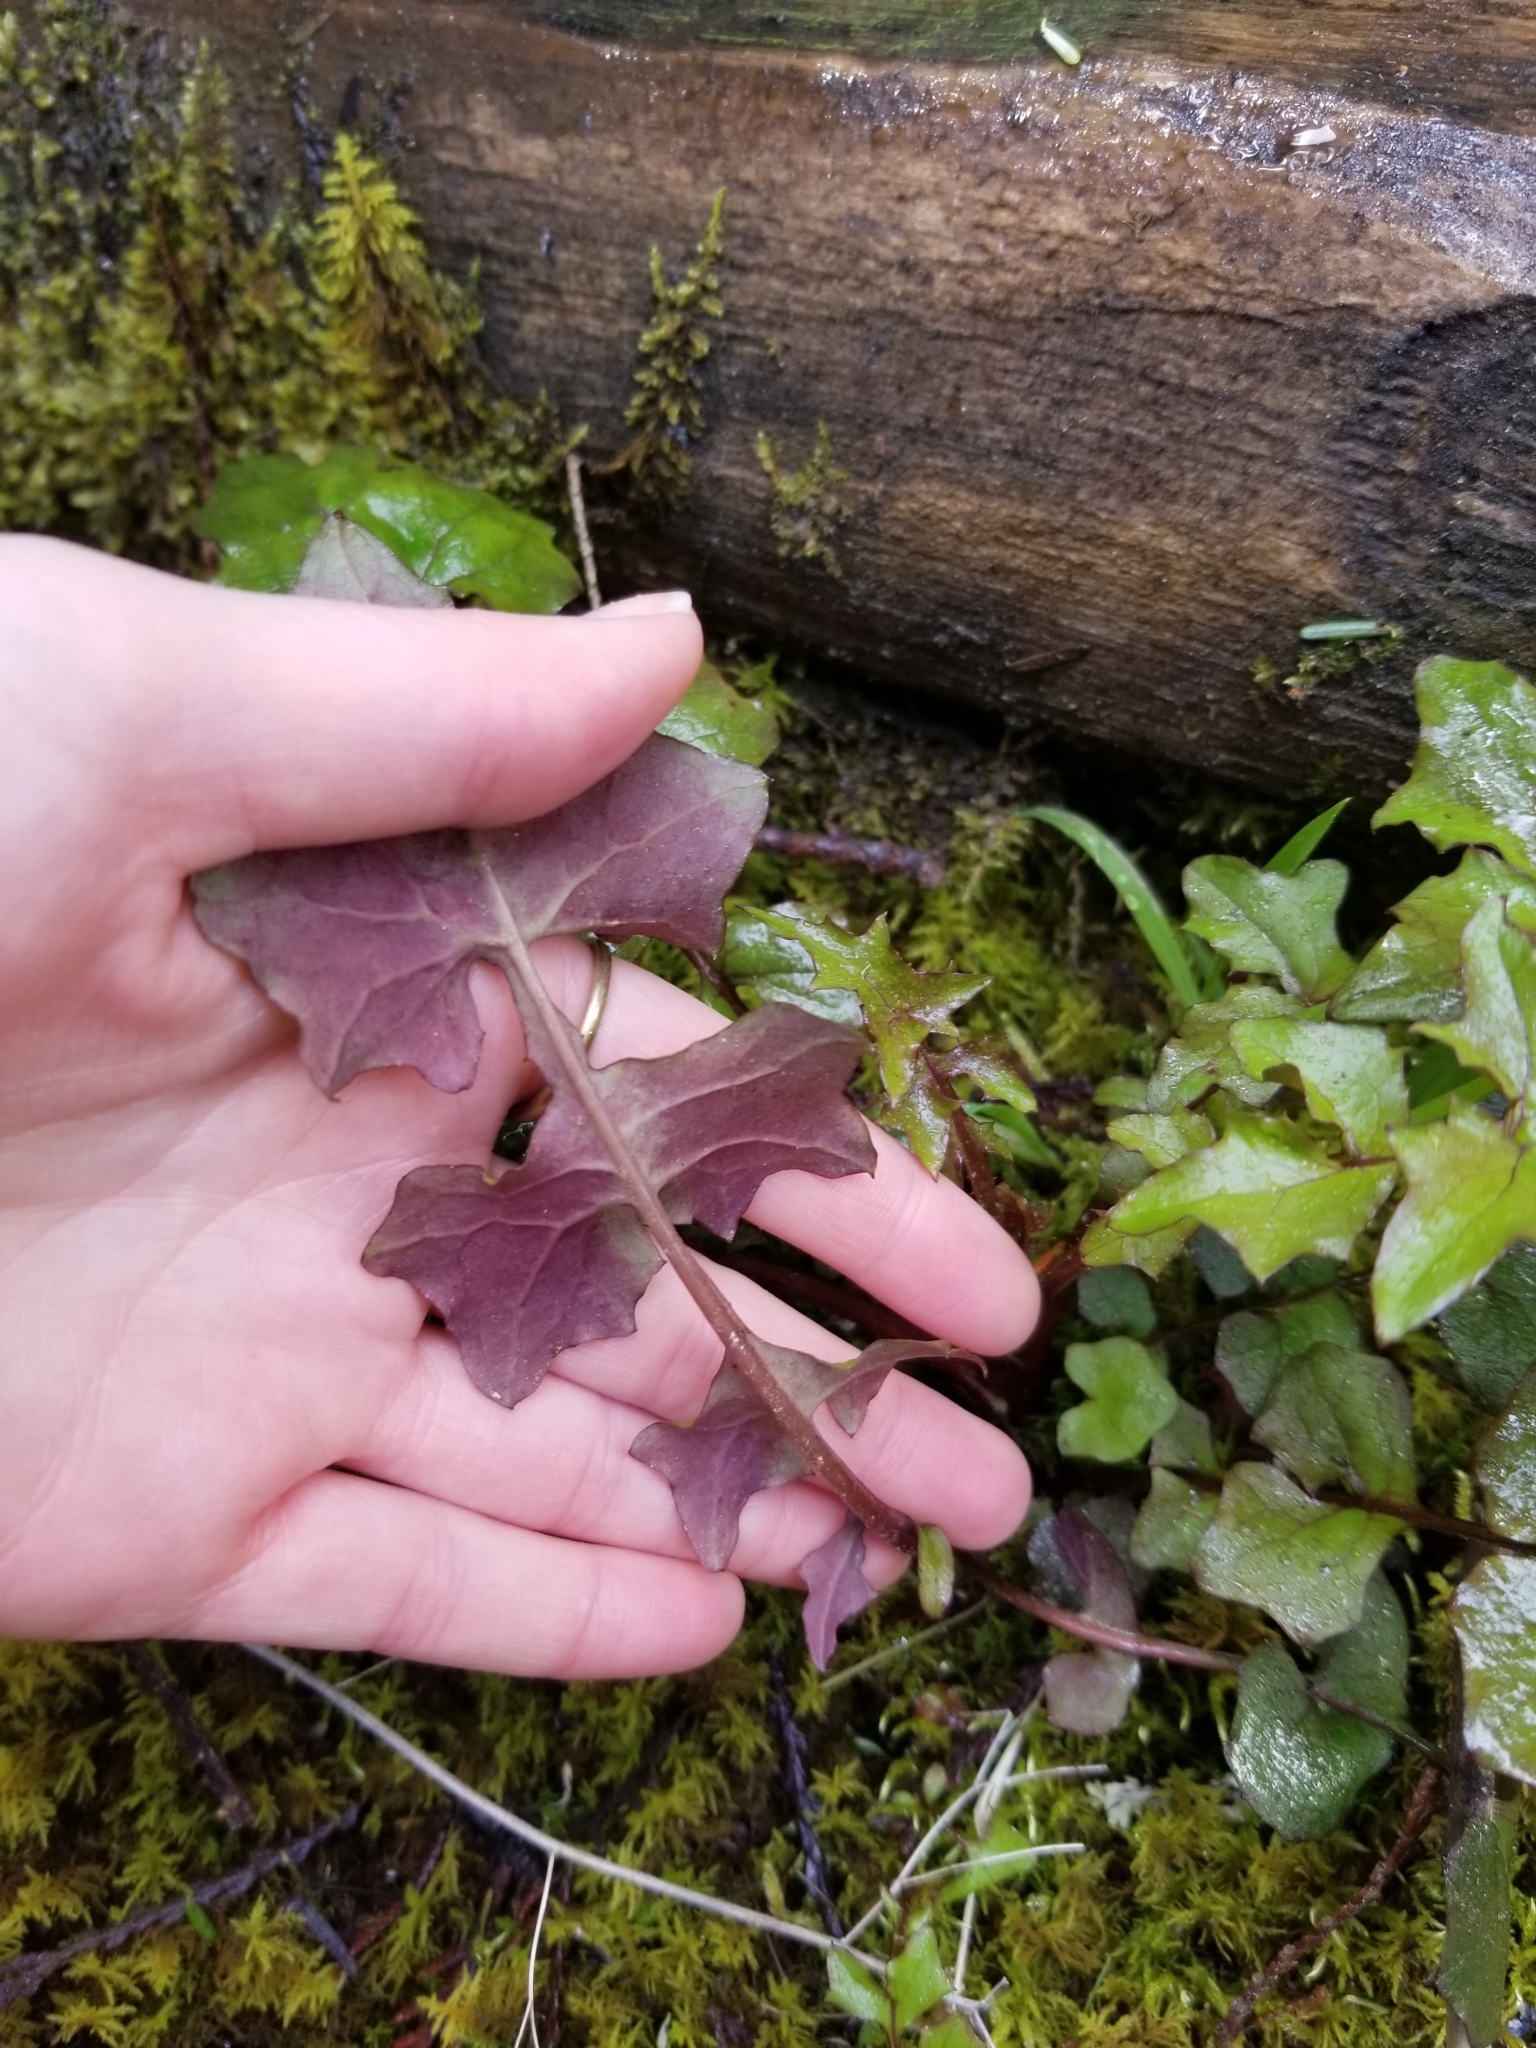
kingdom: Plantae
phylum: Tracheophyta
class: Magnoliopsida
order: Asterales
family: Asteraceae
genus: Mycelis
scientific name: Mycelis muralis
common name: Wall lettuce
